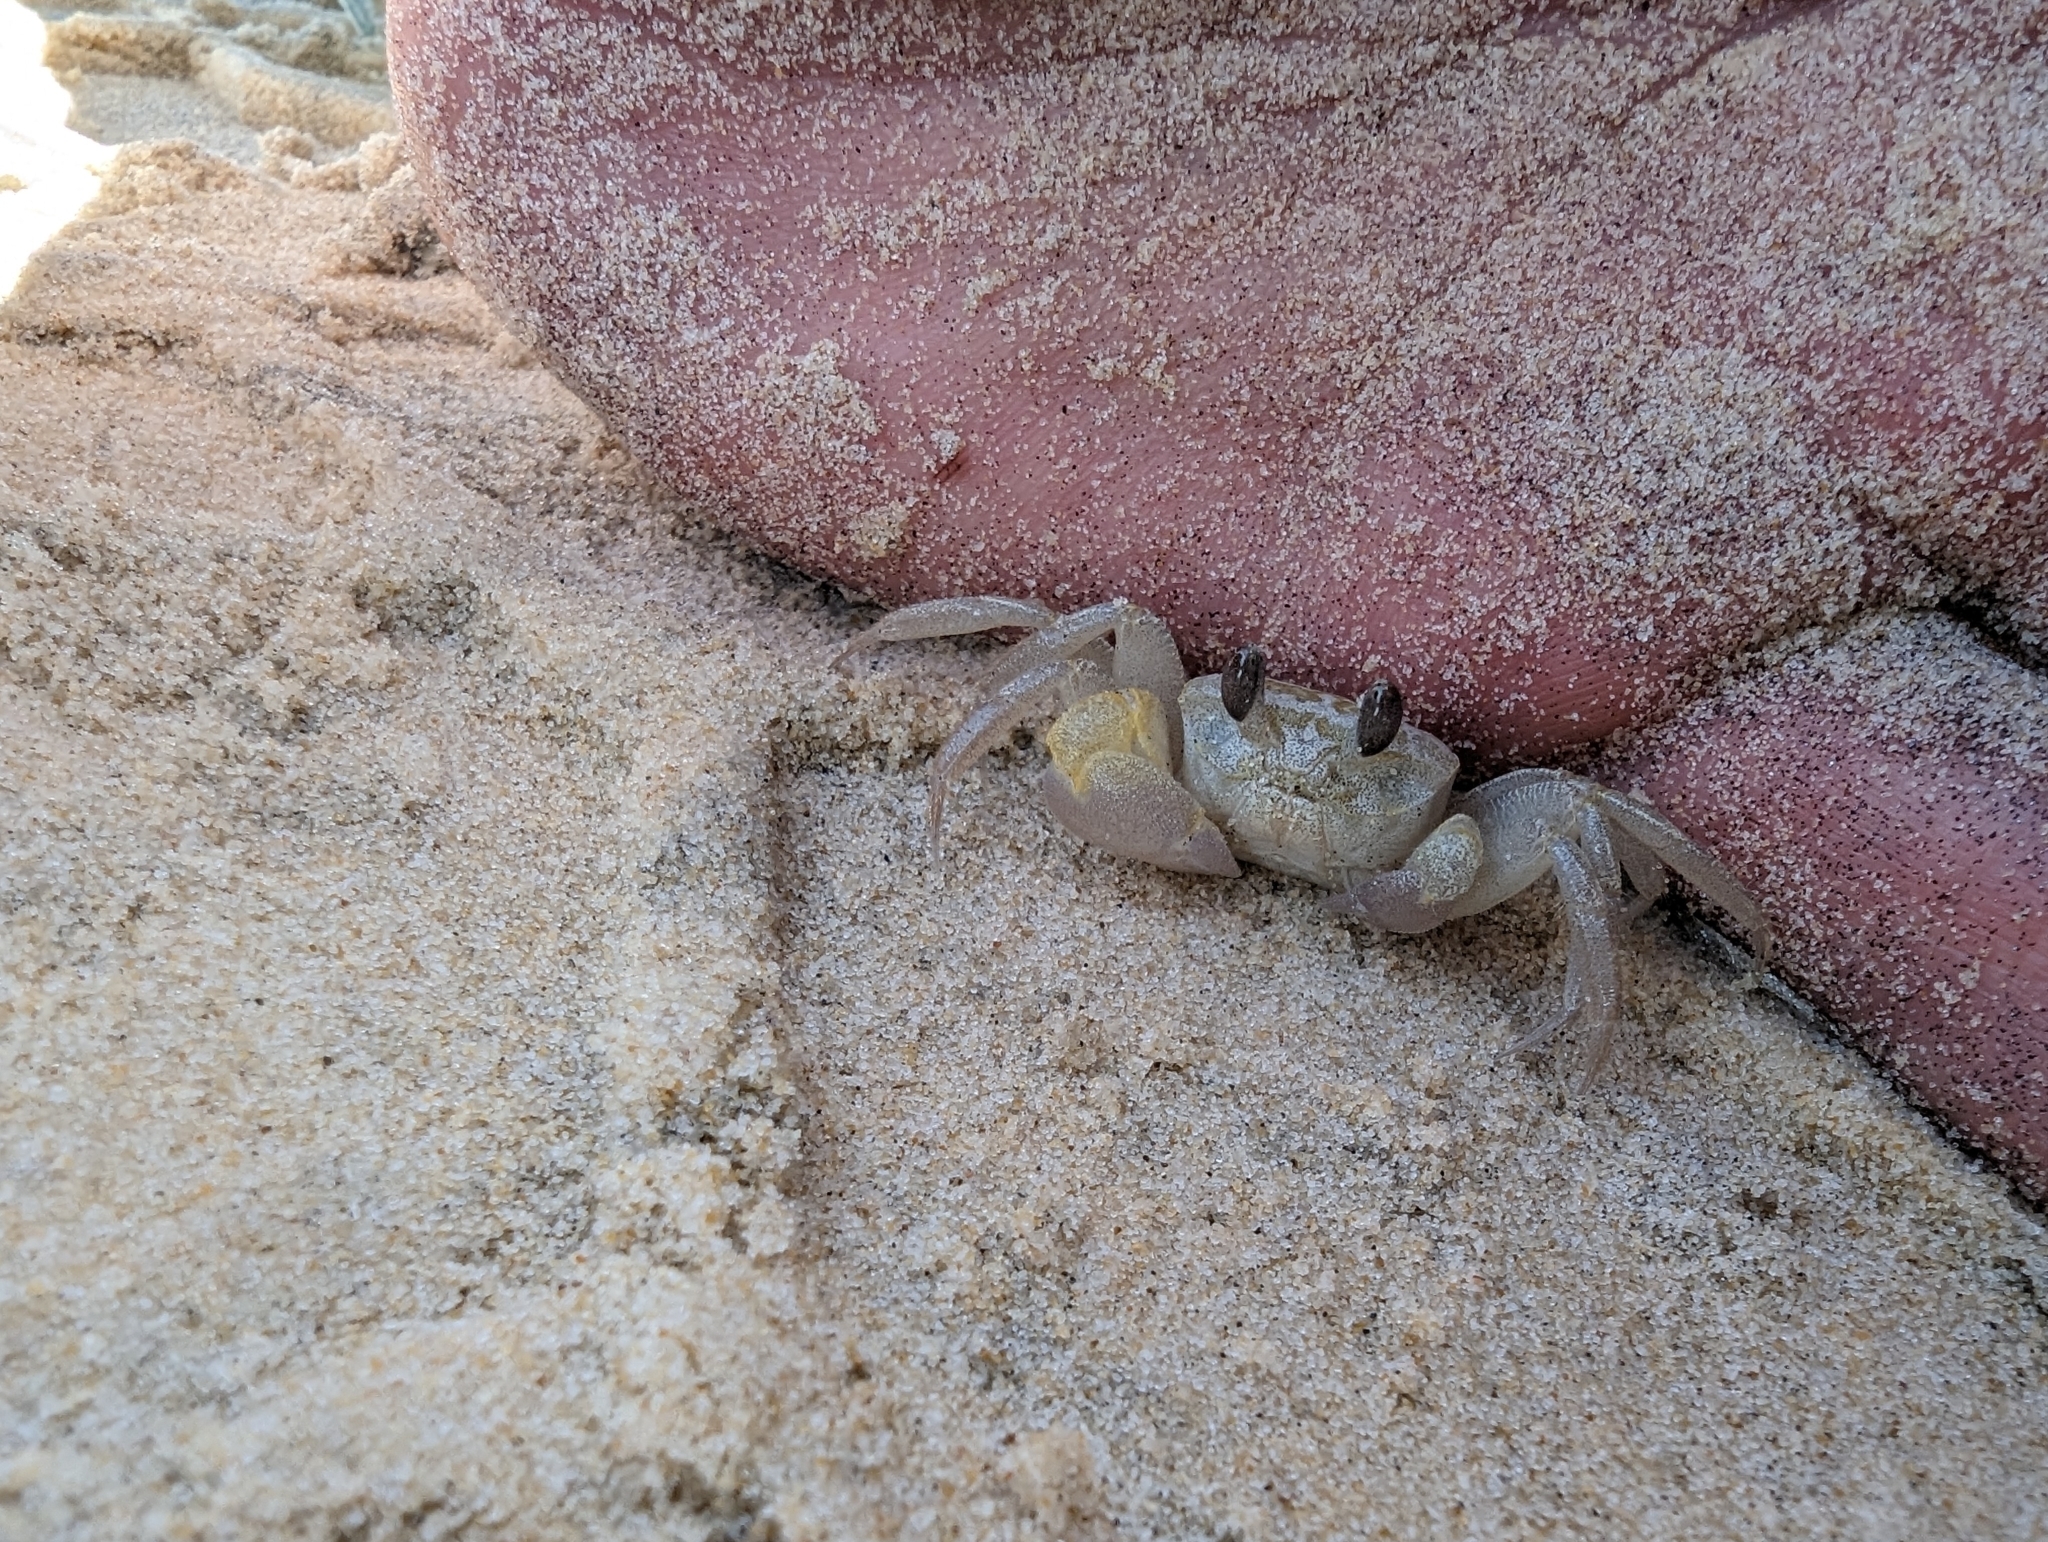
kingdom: Animalia
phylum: Arthropoda
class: Malacostraca
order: Decapoda
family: Ocypodidae
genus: Ocypode
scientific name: Ocypode cordimana
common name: Smooth-eyed ghost crab
